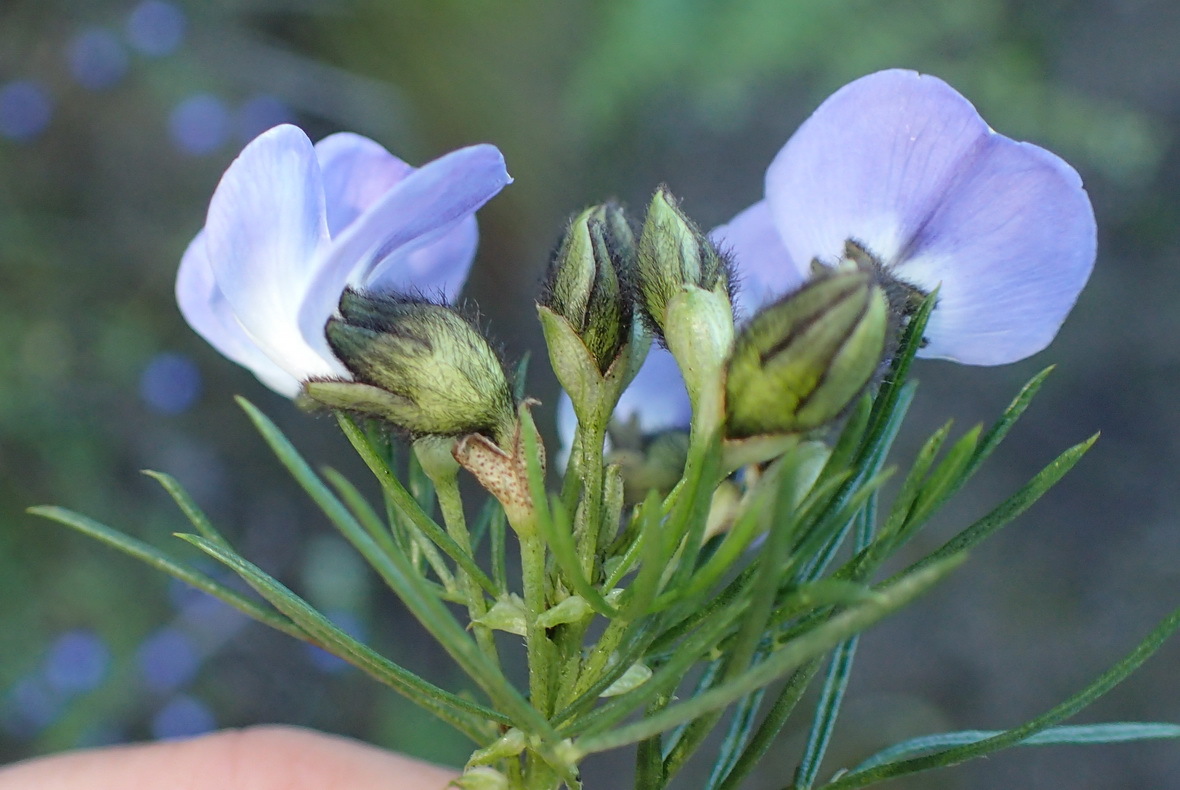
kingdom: Plantae
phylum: Tracheophyta
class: Magnoliopsida
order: Fabales
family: Fabaceae
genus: Psoralea
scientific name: Psoralea arborea
